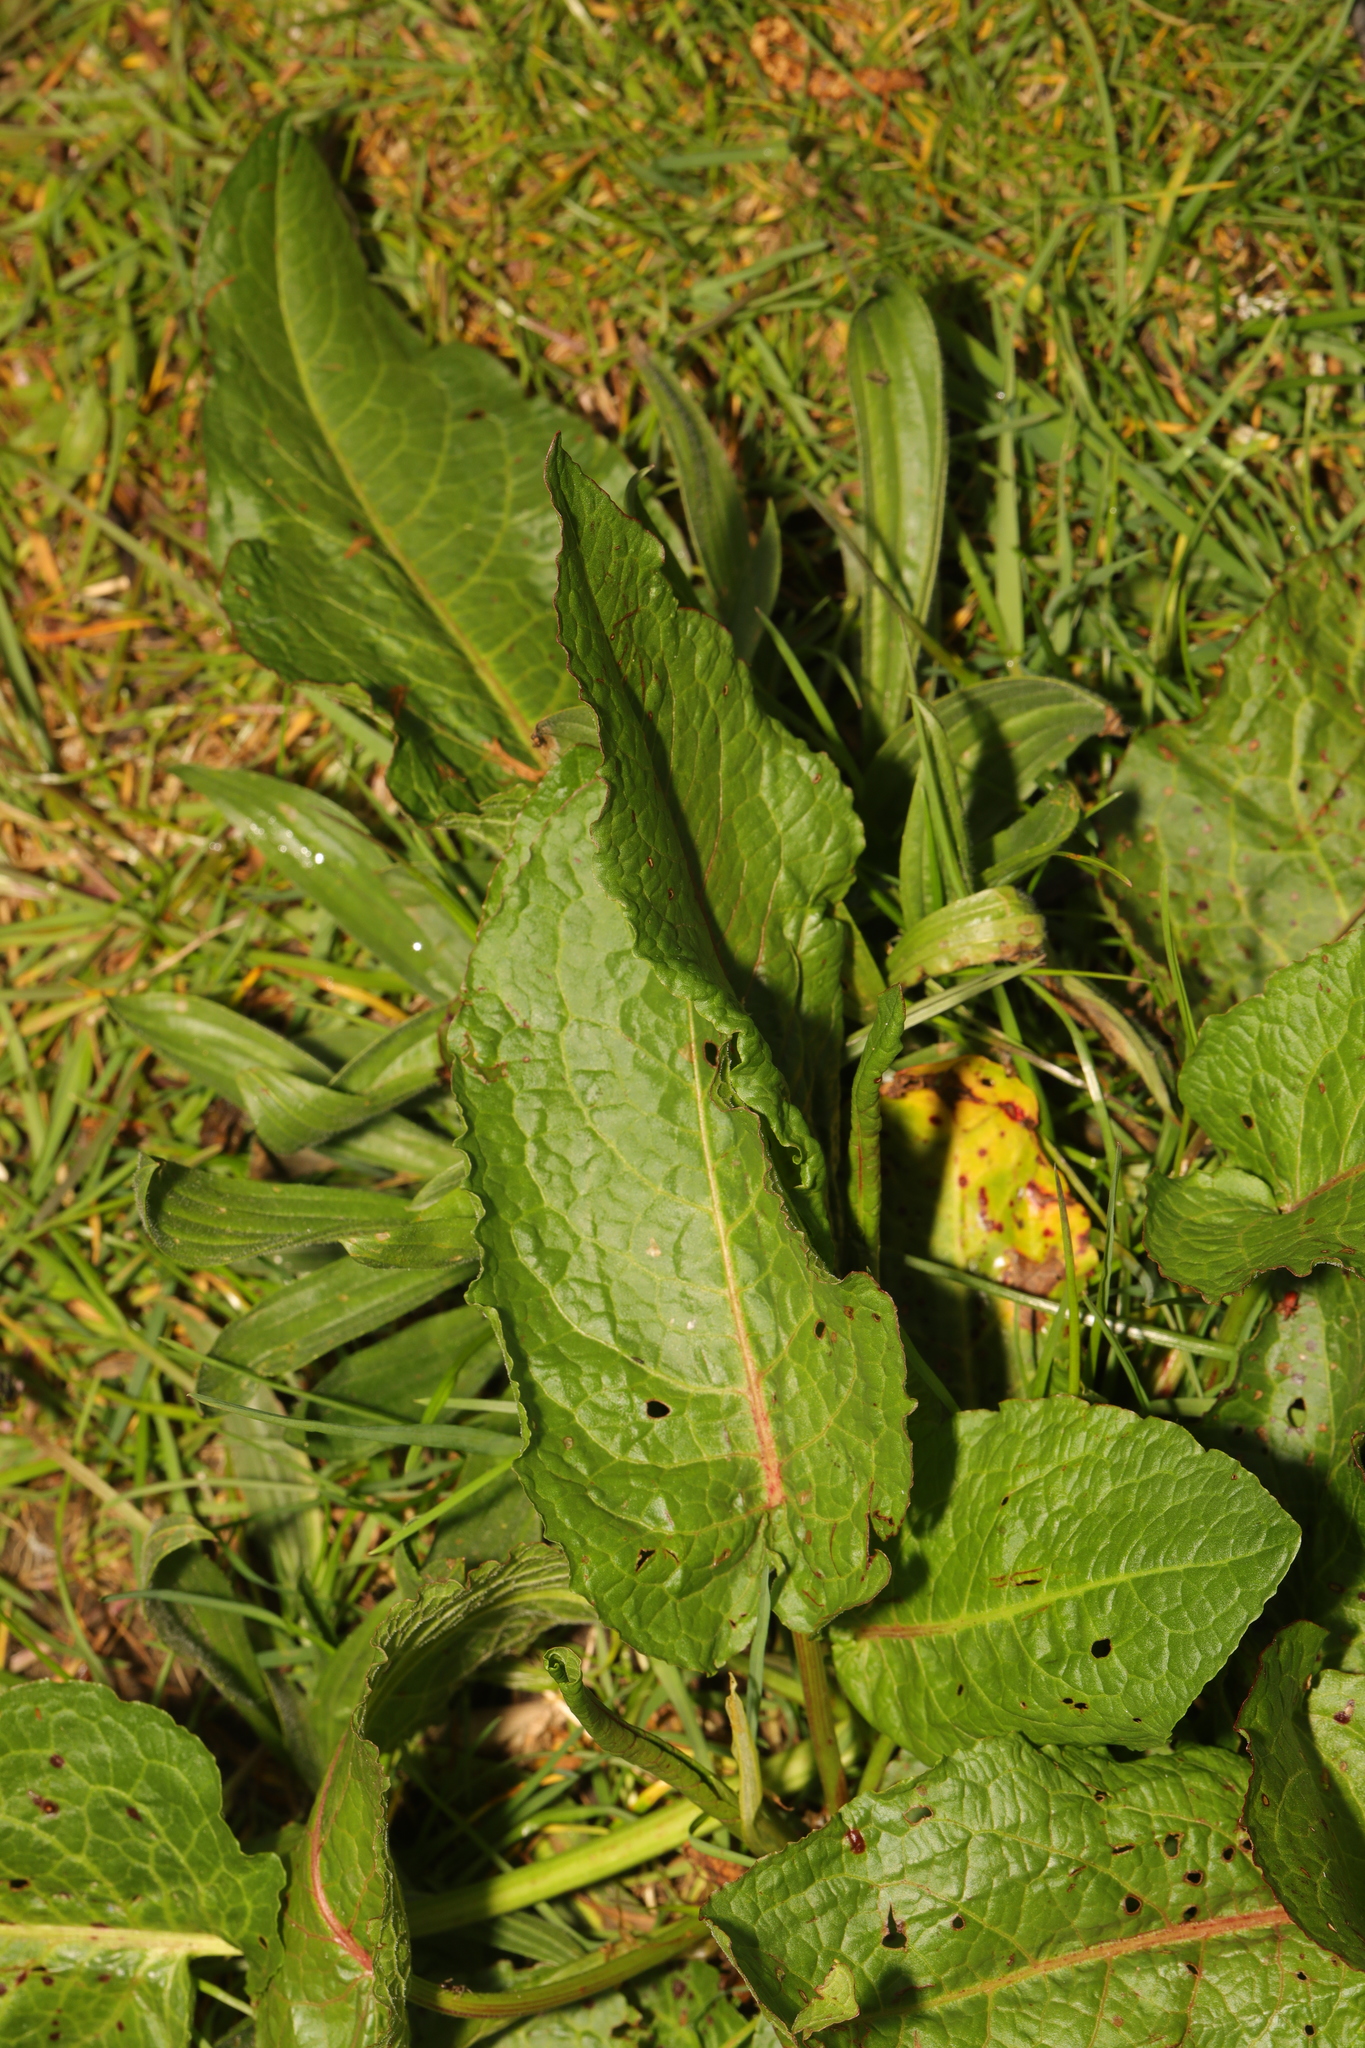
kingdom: Plantae
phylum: Tracheophyta
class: Magnoliopsida
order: Caryophyllales
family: Polygonaceae
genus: Rumex
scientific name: Rumex obtusifolius
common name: Bitter dock
